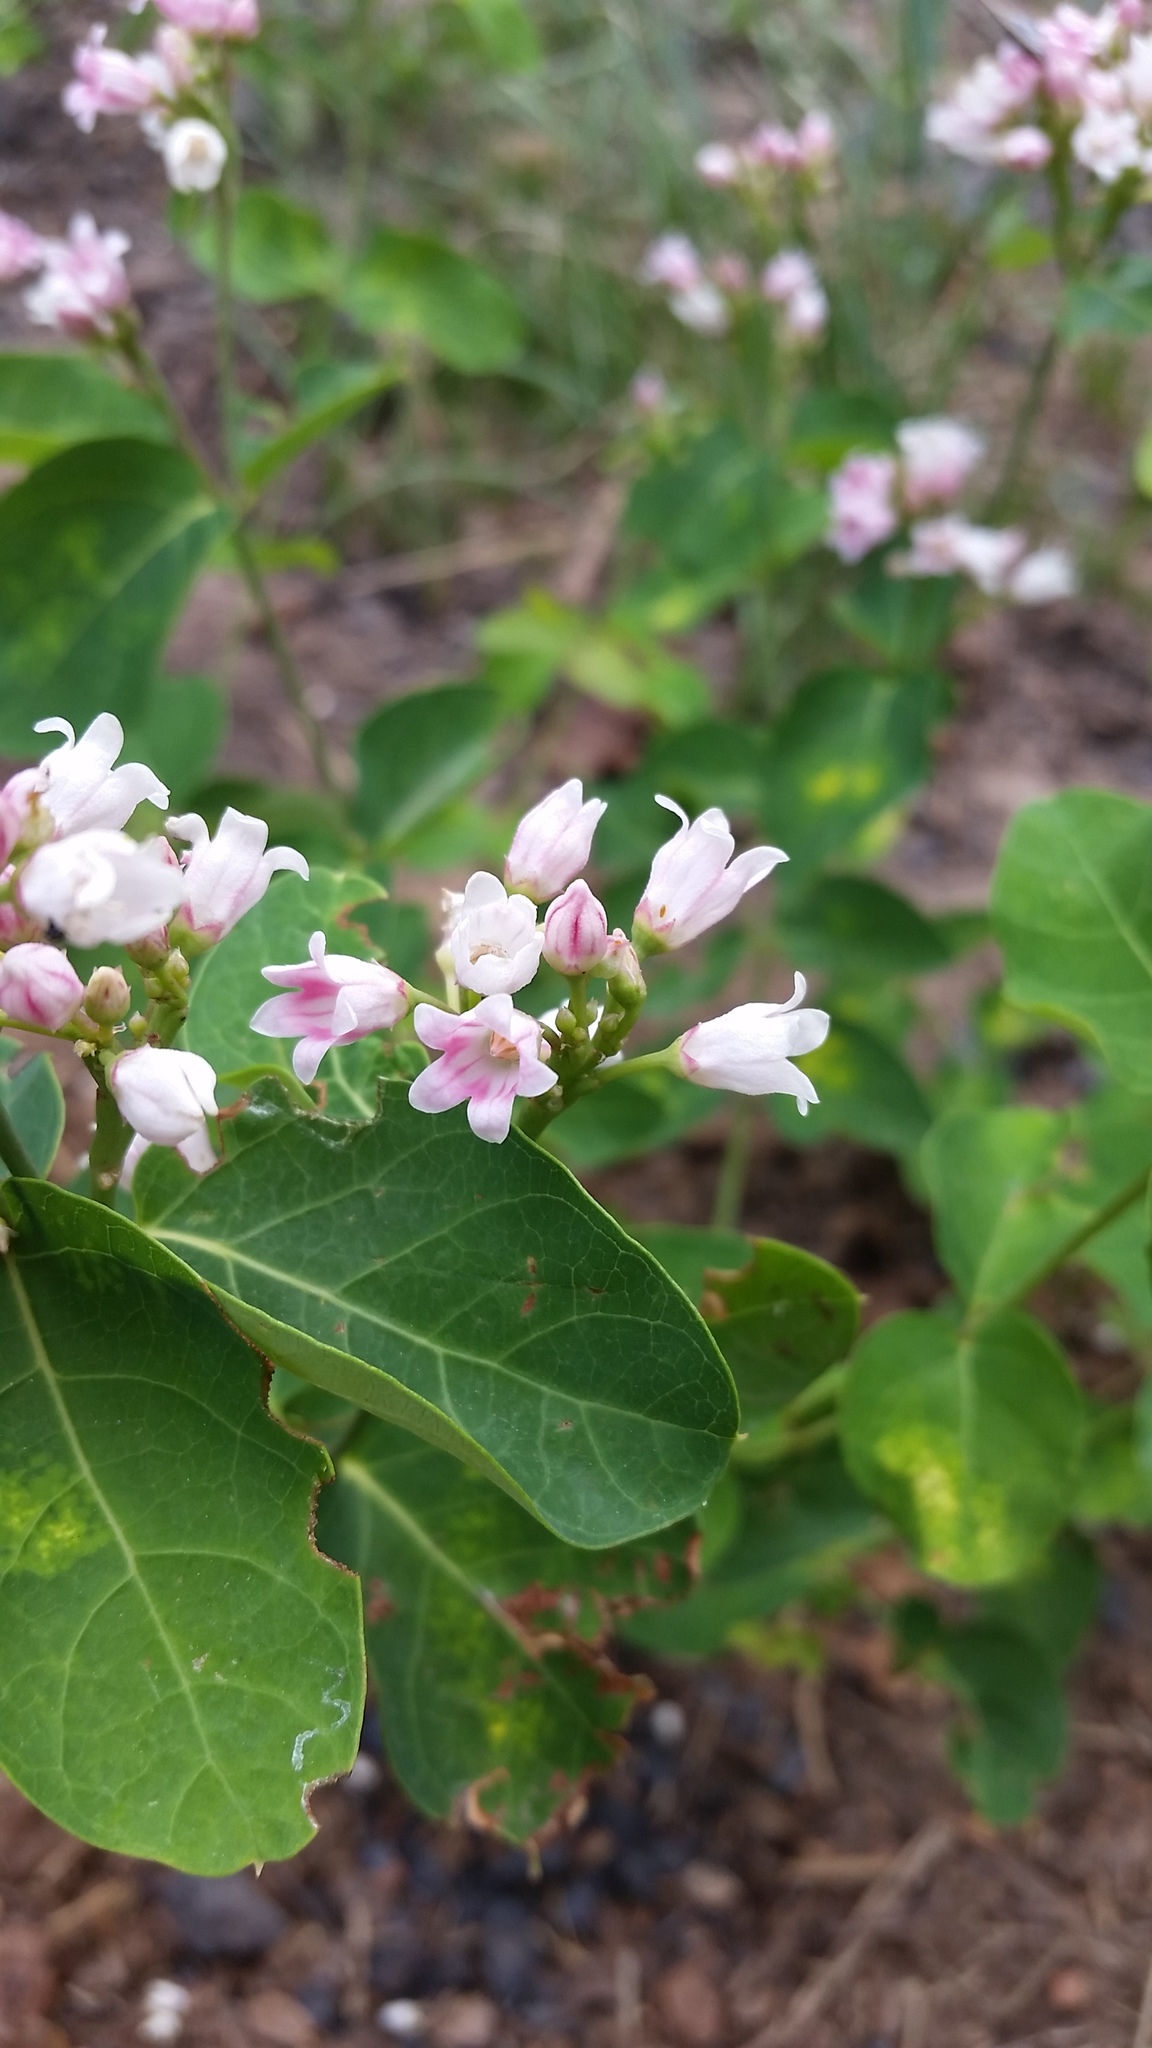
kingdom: Plantae
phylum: Tracheophyta
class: Magnoliopsida
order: Gentianales
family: Apocynaceae
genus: Apocynum
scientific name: Apocynum androsaemifolium
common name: Spreading dogbane
